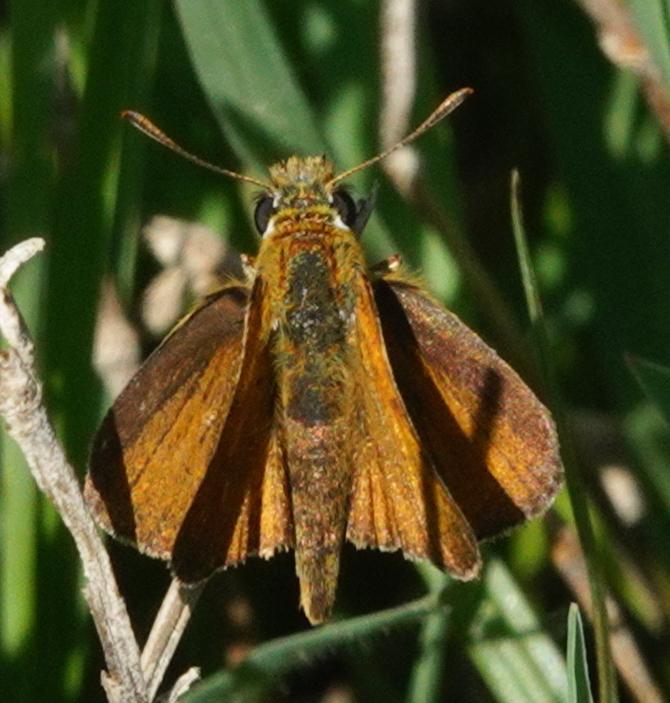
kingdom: Animalia
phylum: Arthropoda
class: Insecta
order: Lepidoptera
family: Hesperiidae
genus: Thymelicus
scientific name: Thymelicus acteon
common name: Lulworth skipper
